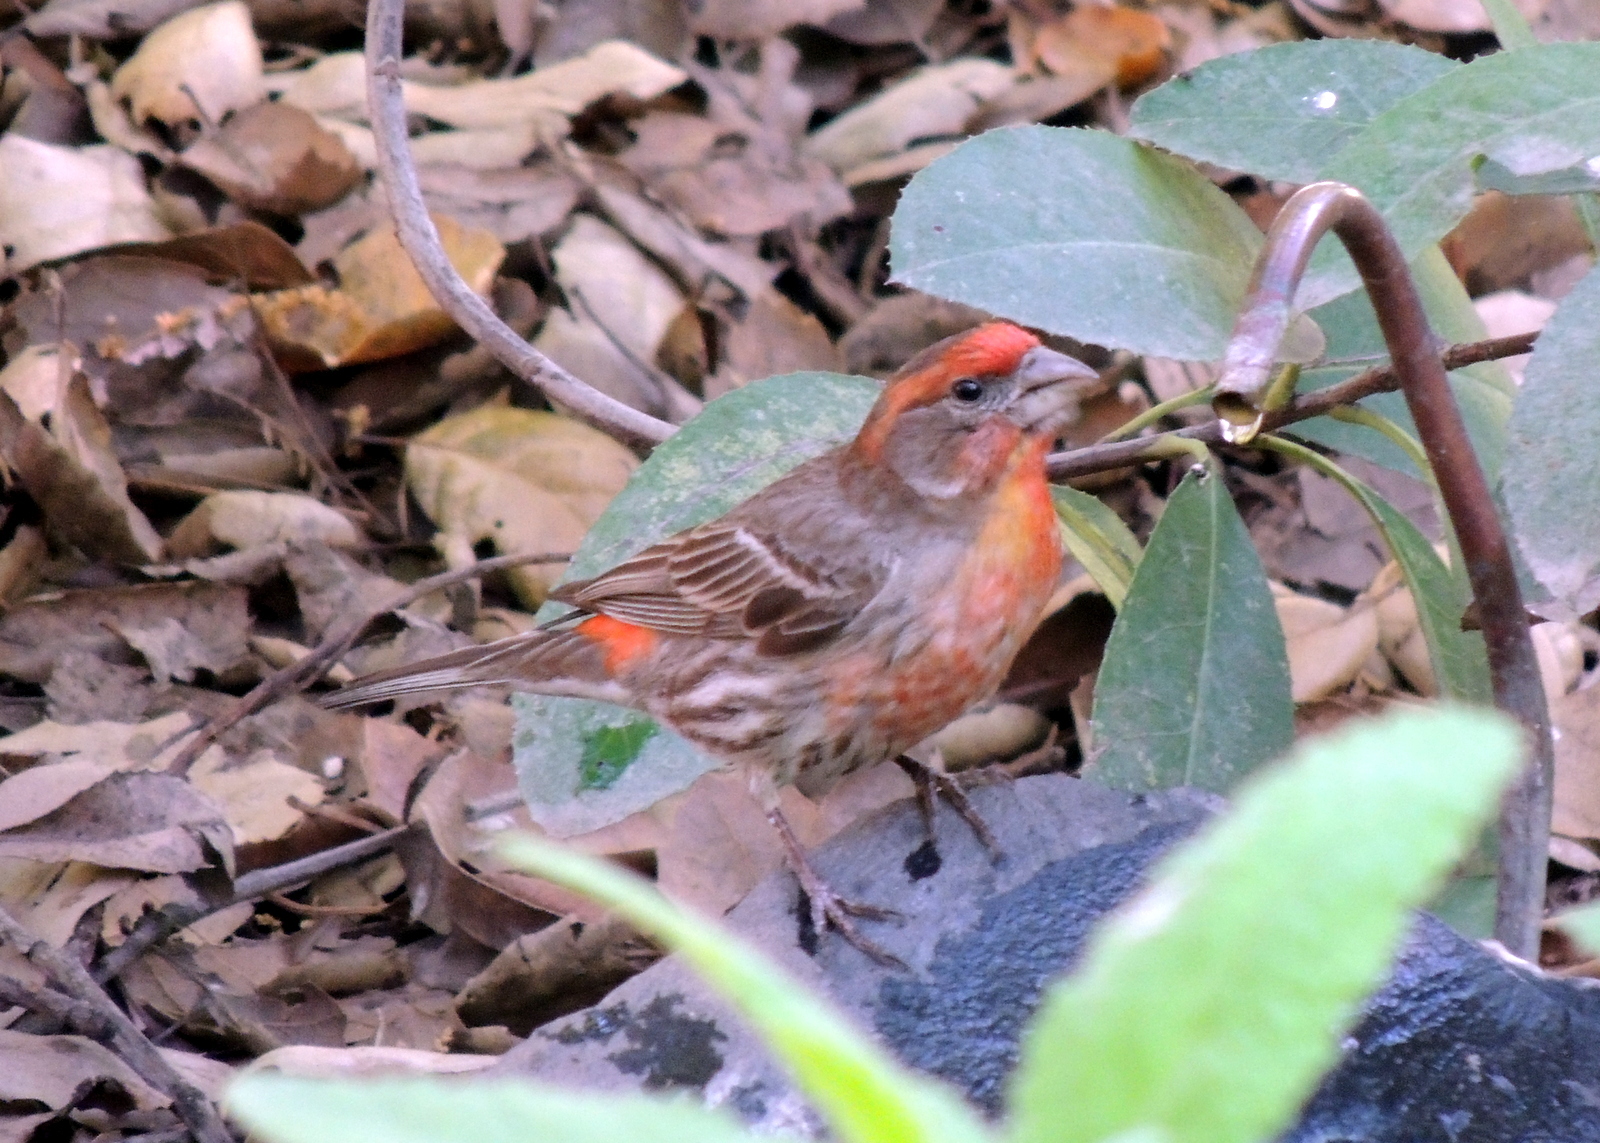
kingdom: Animalia
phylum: Chordata
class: Aves
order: Passeriformes
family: Fringillidae
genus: Haemorhous
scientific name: Haemorhous mexicanus
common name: House finch
